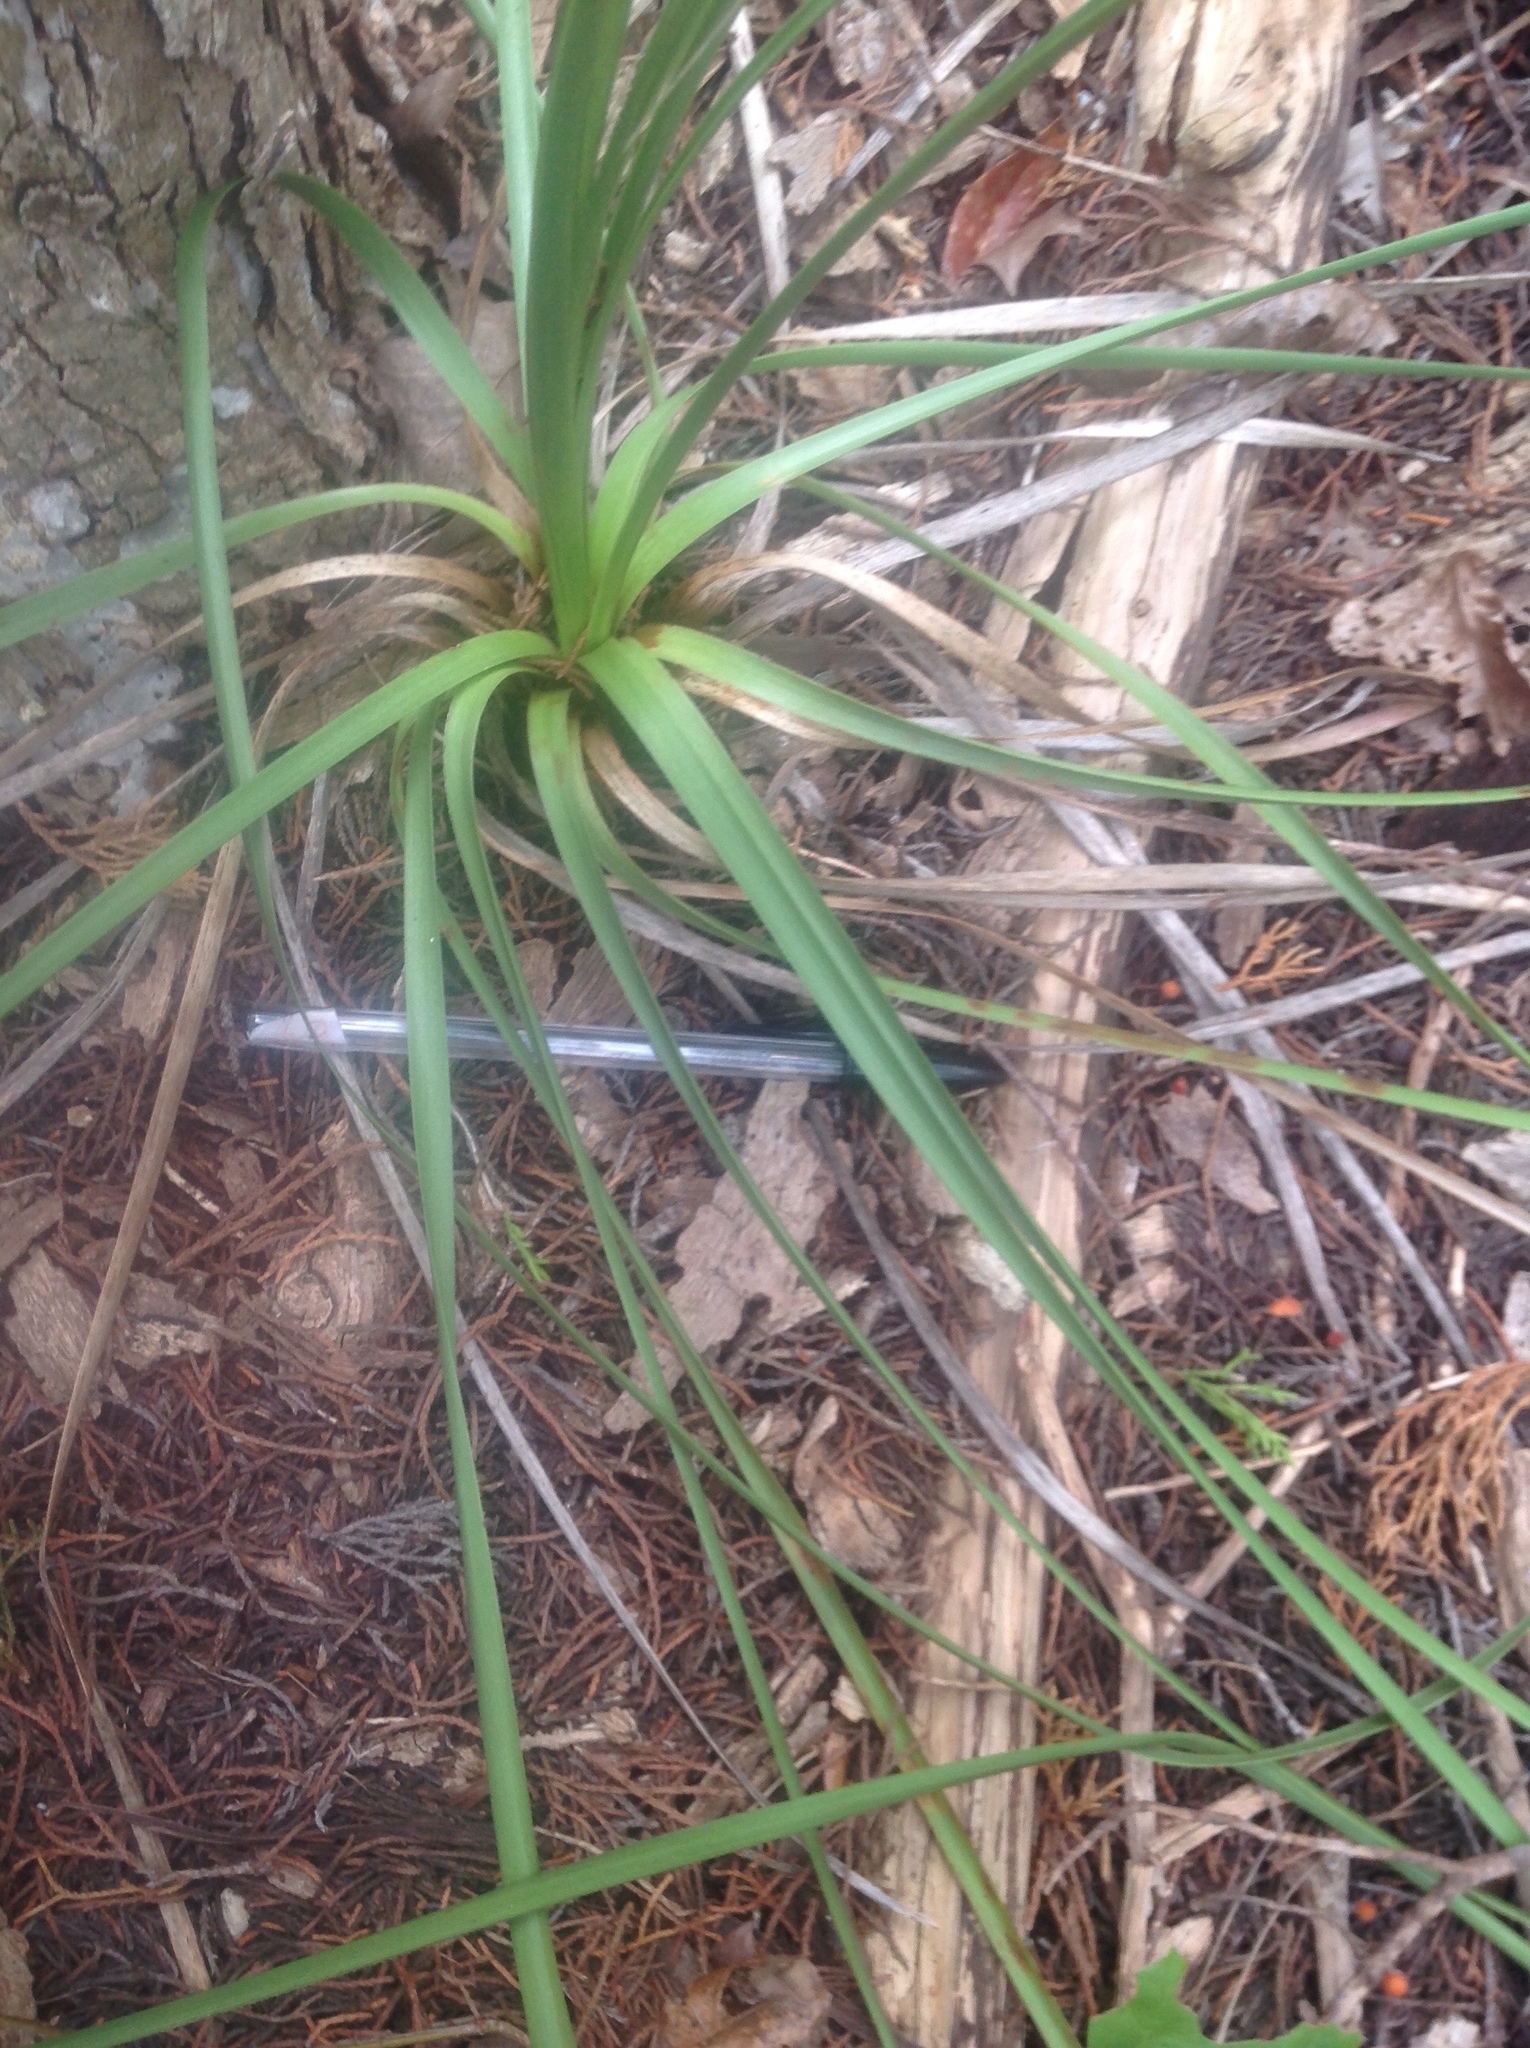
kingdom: Plantae
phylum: Tracheophyta
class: Liliopsida
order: Asparagales
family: Asparagaceae
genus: Nolina
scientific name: Nolina lindheimeriana
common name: Lindheimer's bear-grass
